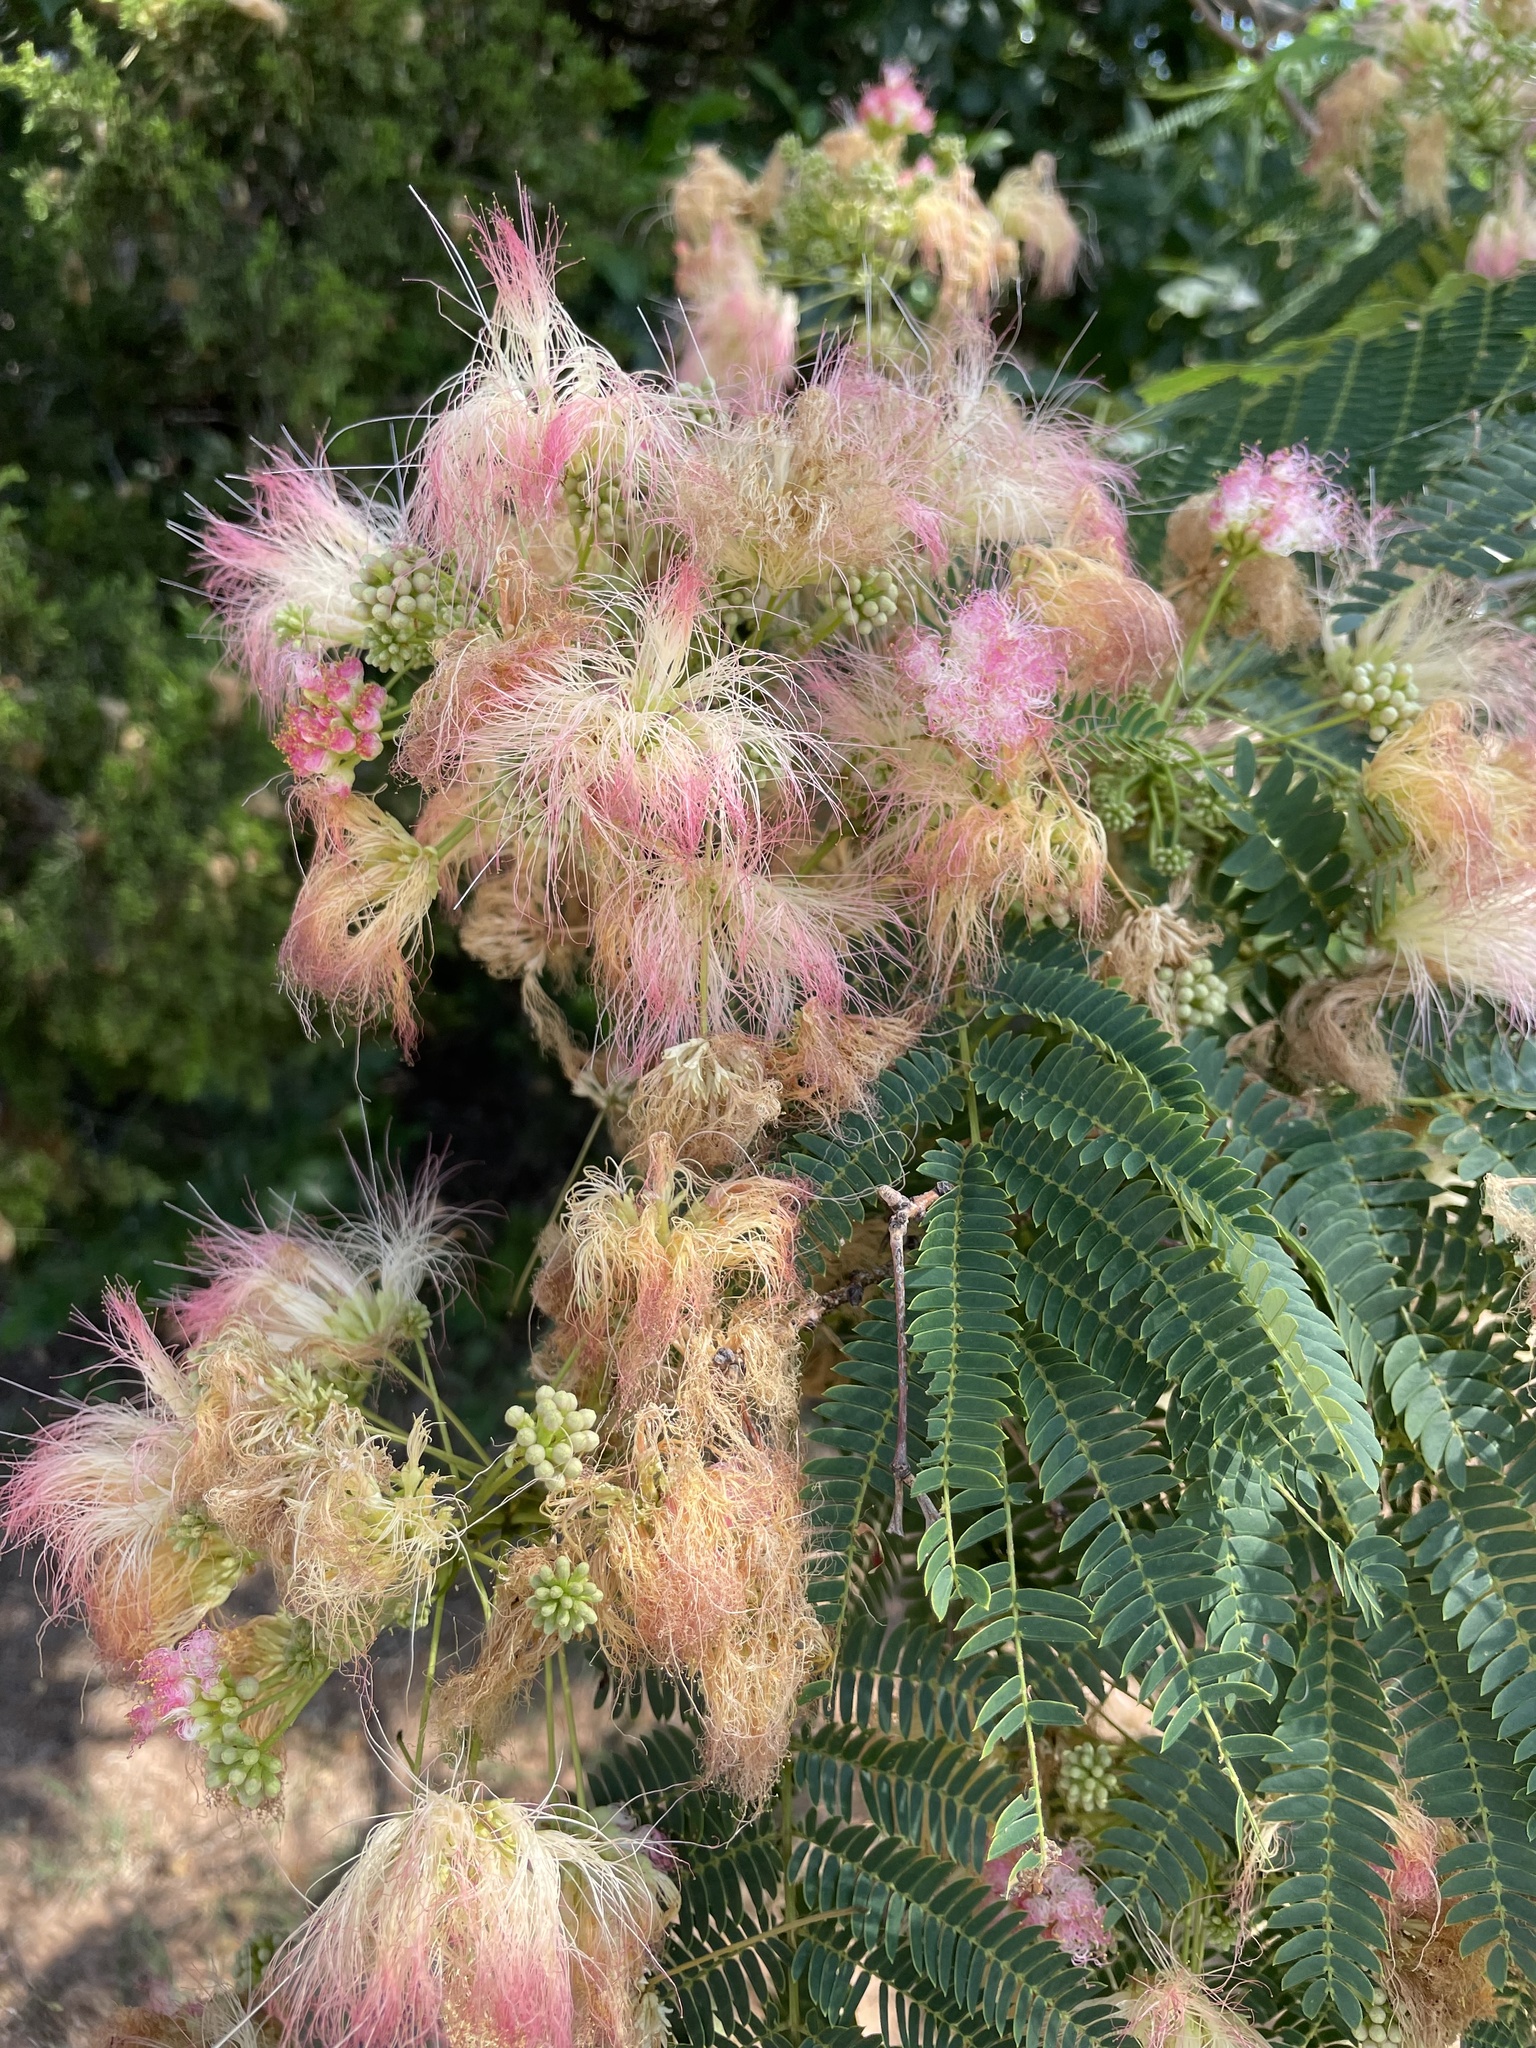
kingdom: Plantae
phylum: Tracheophyta
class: Magnoliopsida
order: Fabales
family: Fabaceae
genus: Albizia
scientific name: Albizia julibrissin
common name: Silktree
